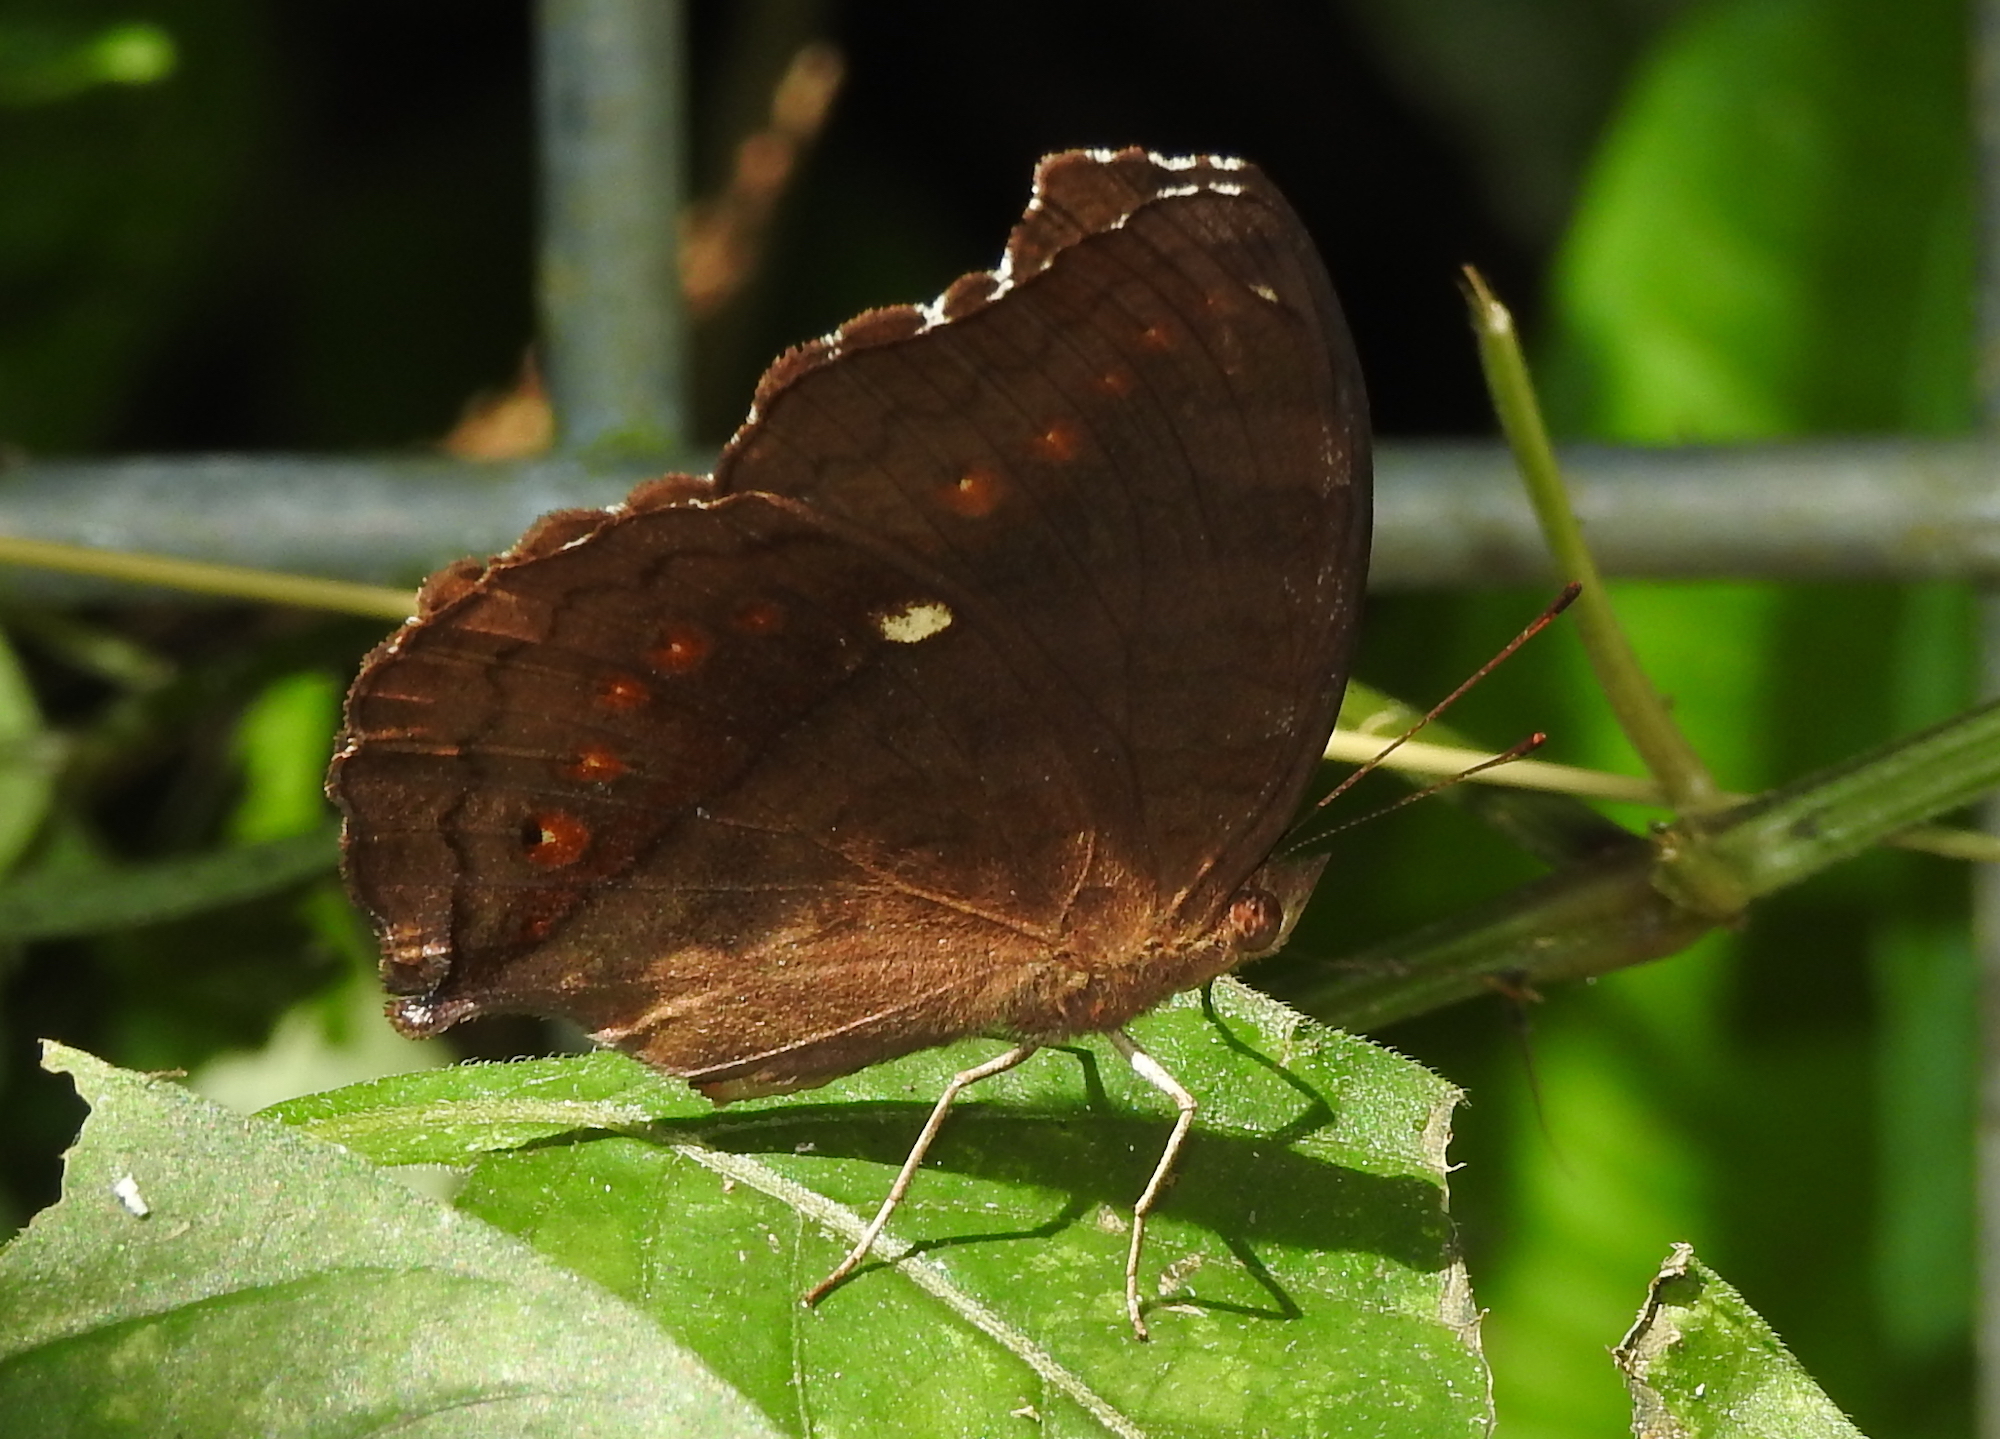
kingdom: Animalia
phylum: Arthropoda
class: Insecta
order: Lepidoptera
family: Nymphalidae
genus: Junonia
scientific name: Junonia hedonia
